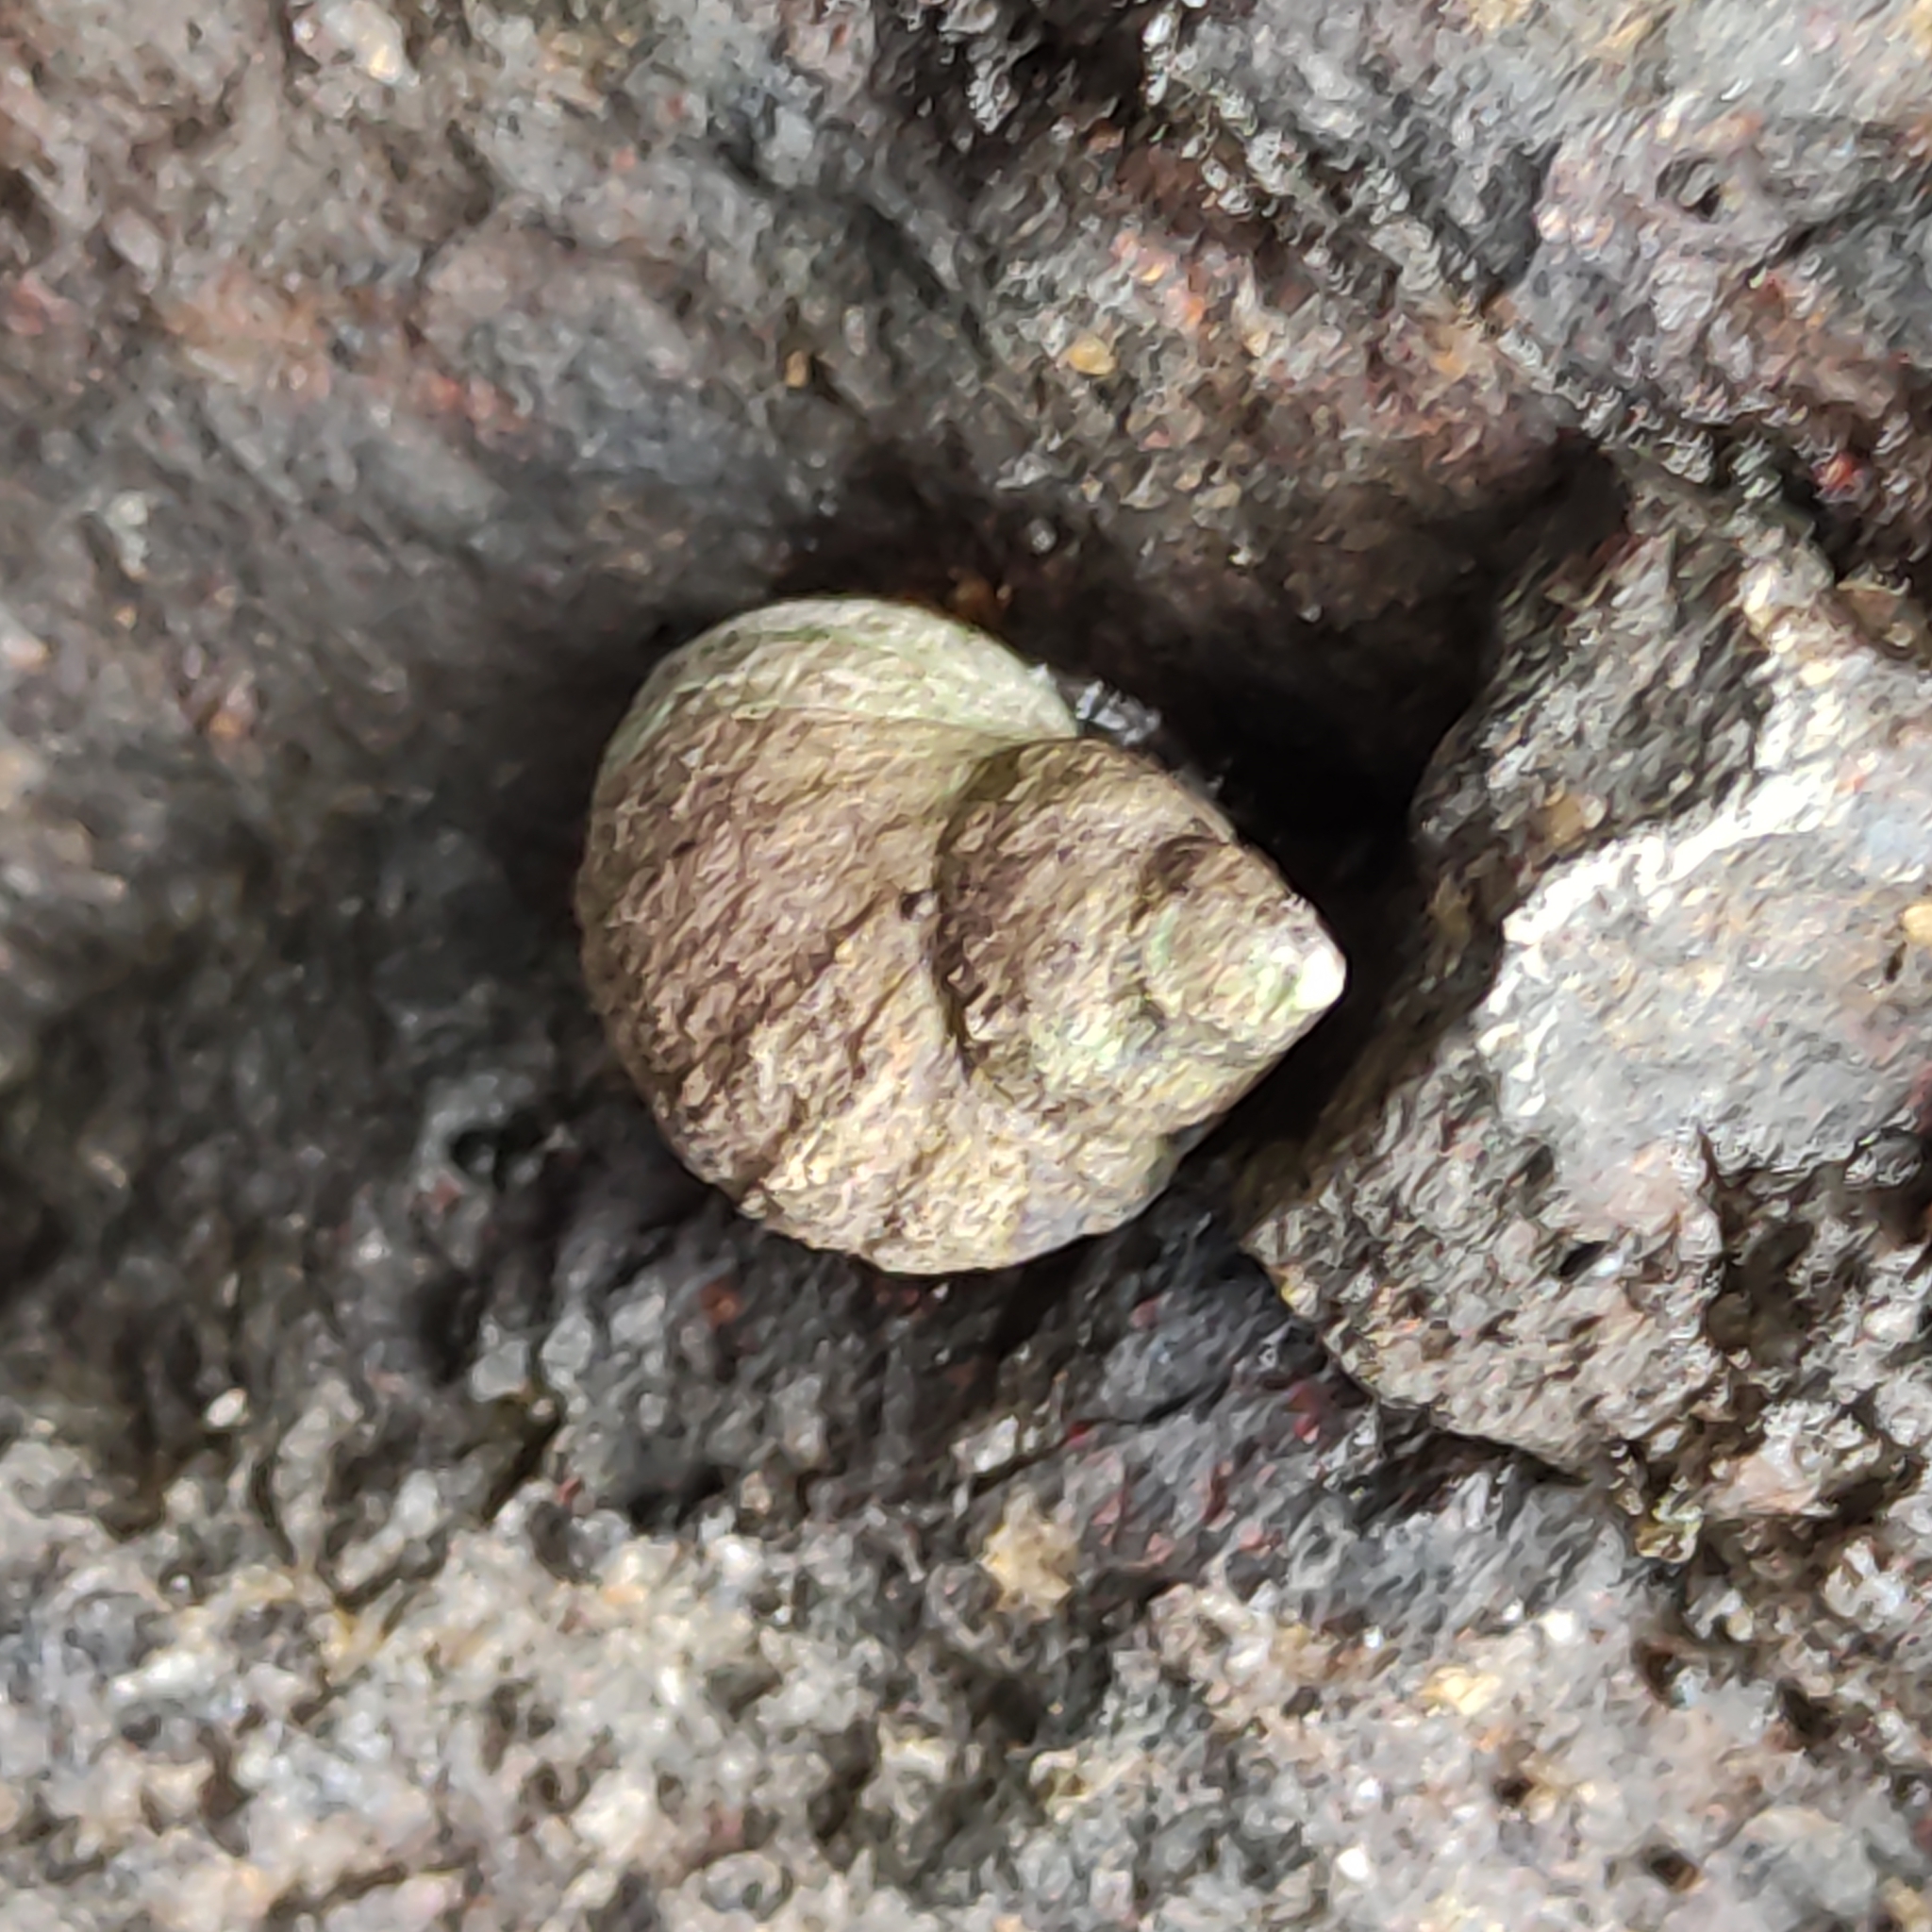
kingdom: Animalia
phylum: Mollusca
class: Gastropoda
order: Littorinimorpha
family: Littorinidae
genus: Austrolittorina
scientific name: Austrolittorina cincta
